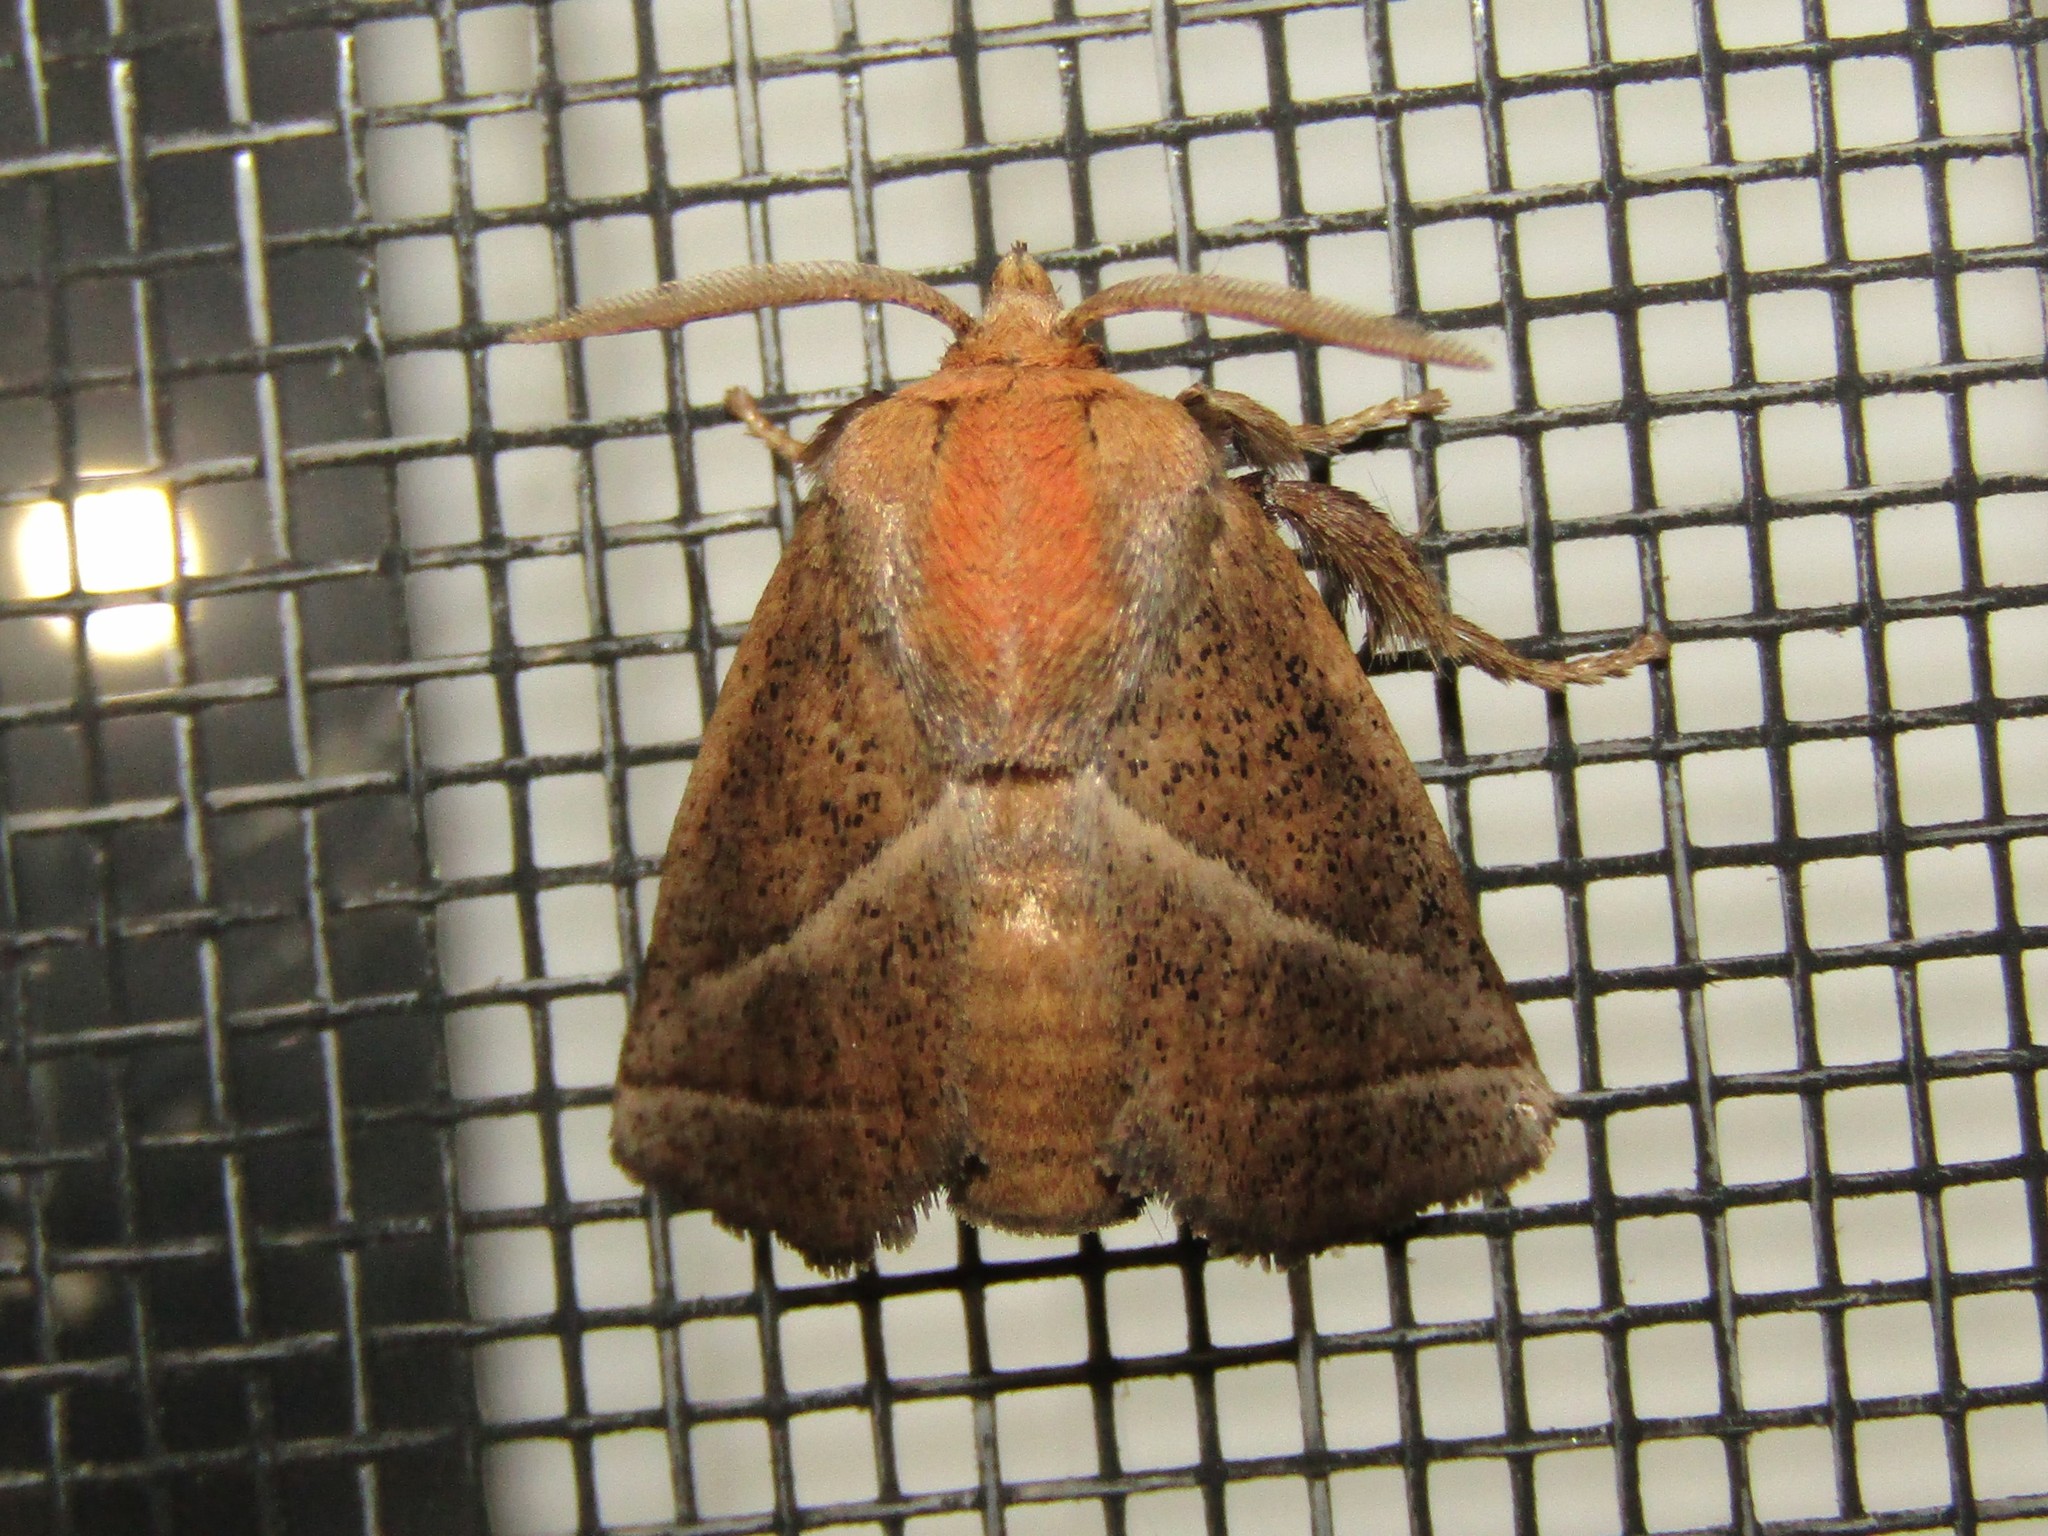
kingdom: Animalia
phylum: Arthropoda
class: Insecta
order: Lepidoptera
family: Limacodidae
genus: Natada
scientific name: Natada nasoni
